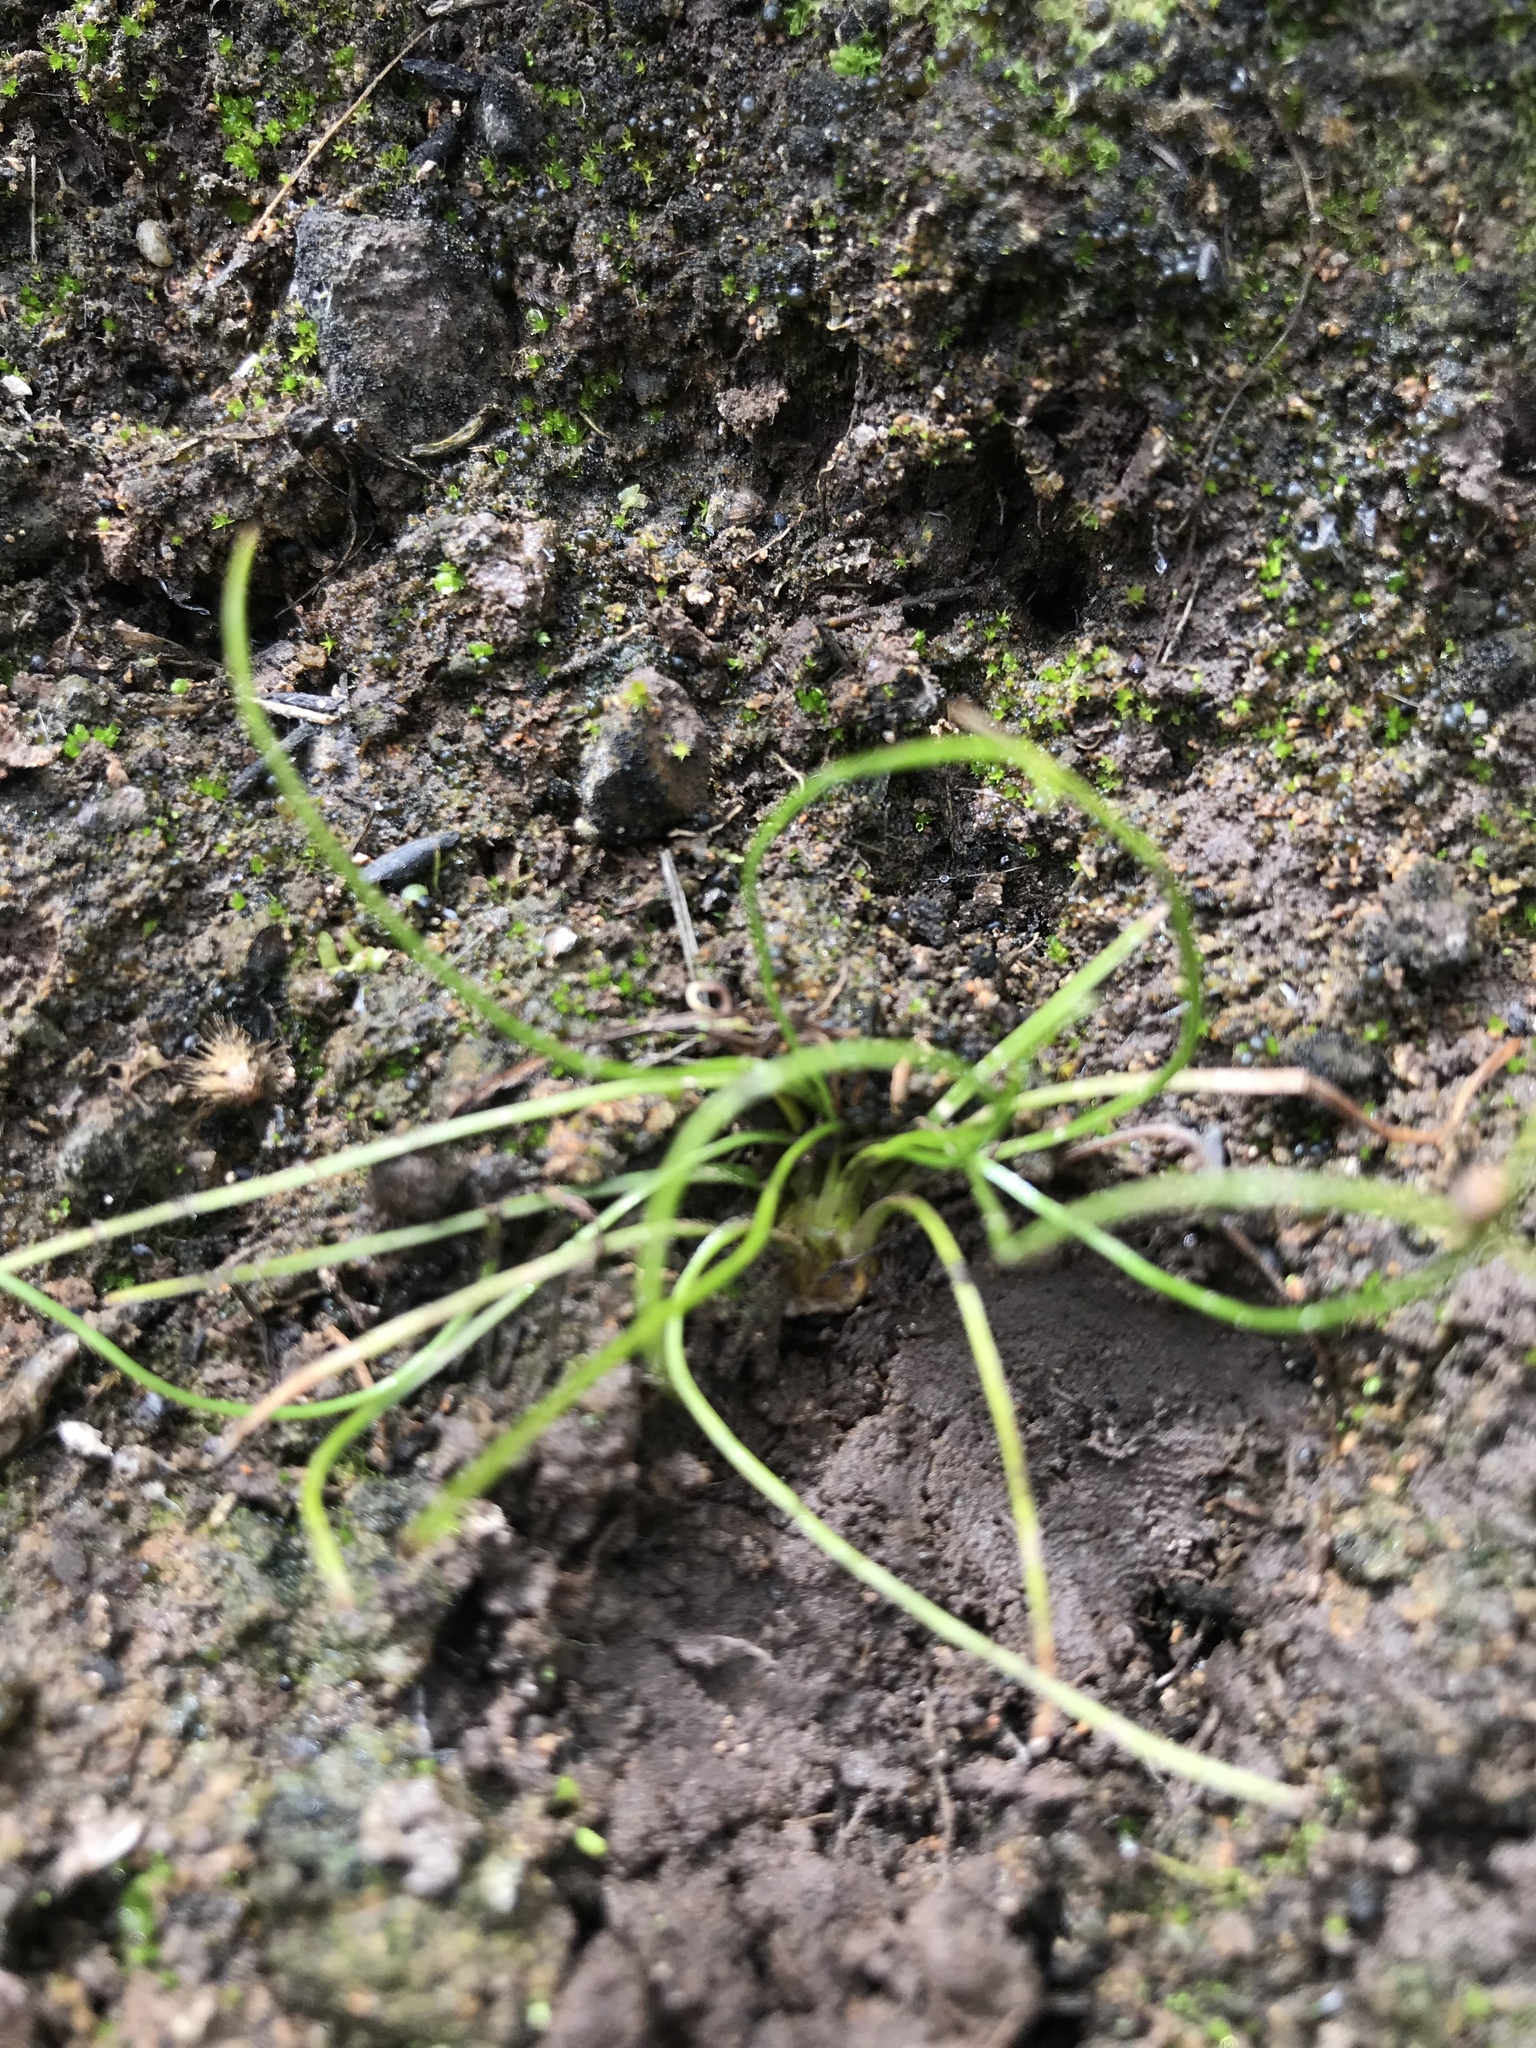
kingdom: Plantae
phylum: Tracheophyta
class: Lycopodiopsida
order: Isoetales
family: Isoetaceae
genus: Isoetes
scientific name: Isoetes orcuttii
